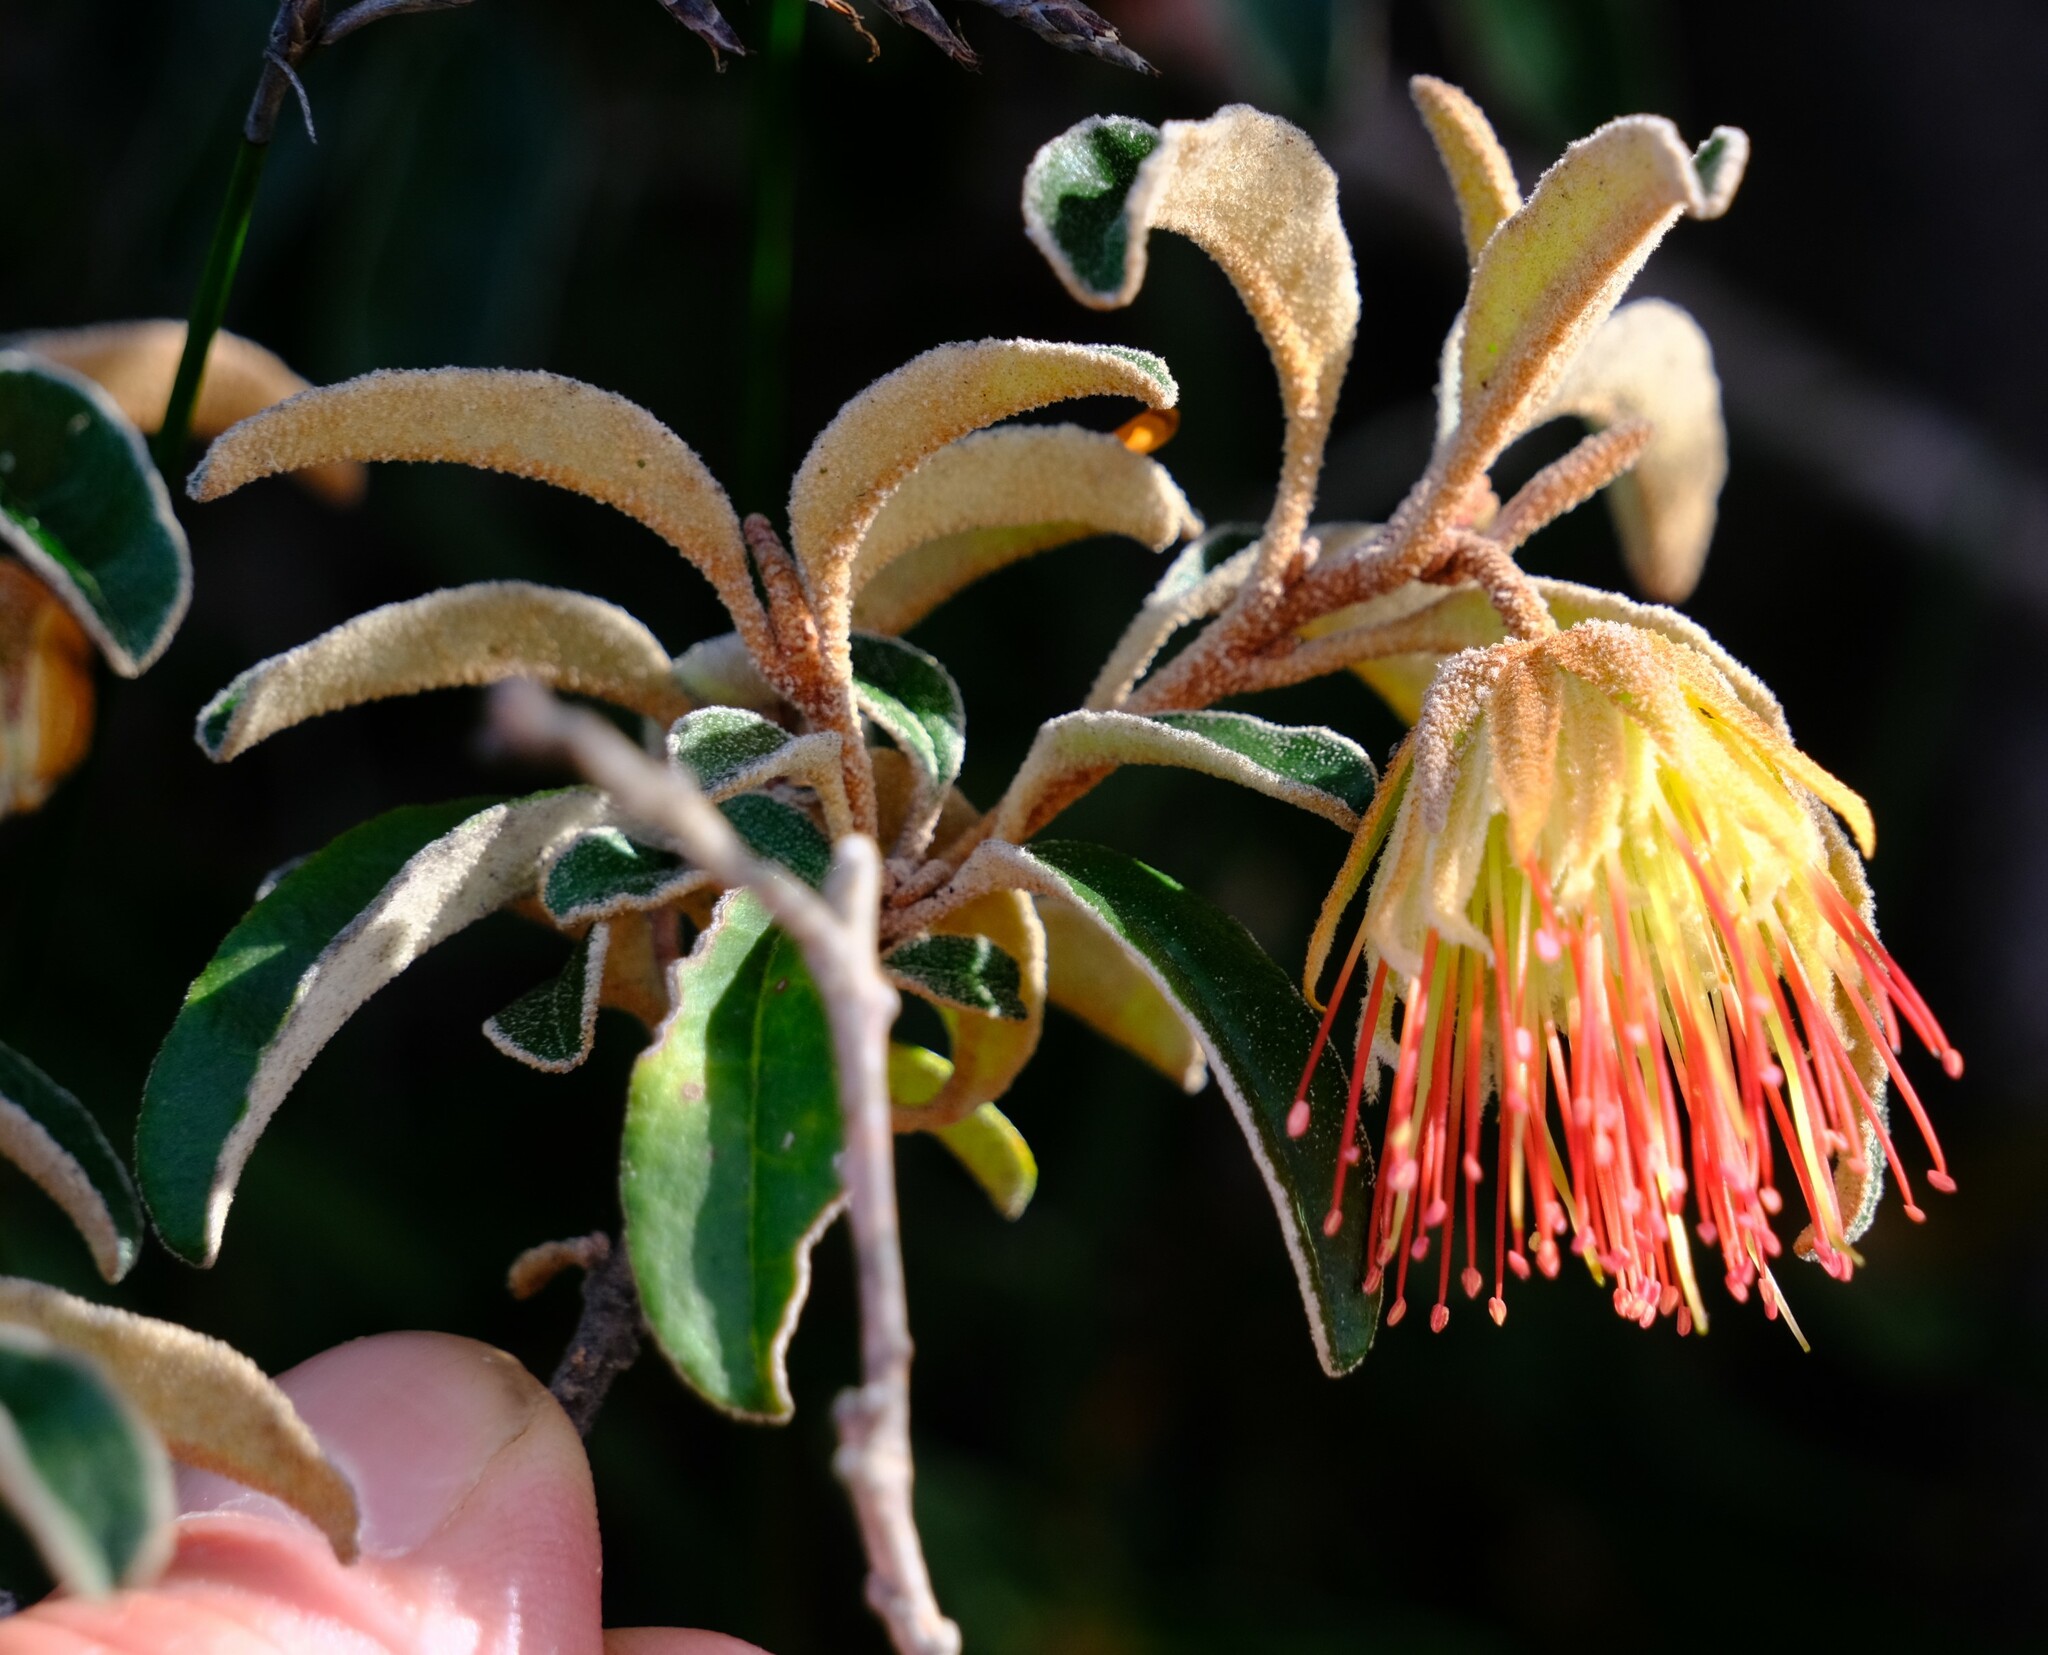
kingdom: Plantae
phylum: Tracheophyta
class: Magnoliopsida
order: Sapindales
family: Rutaceae
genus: Diplolaena
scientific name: Diplolaena ferruginea
